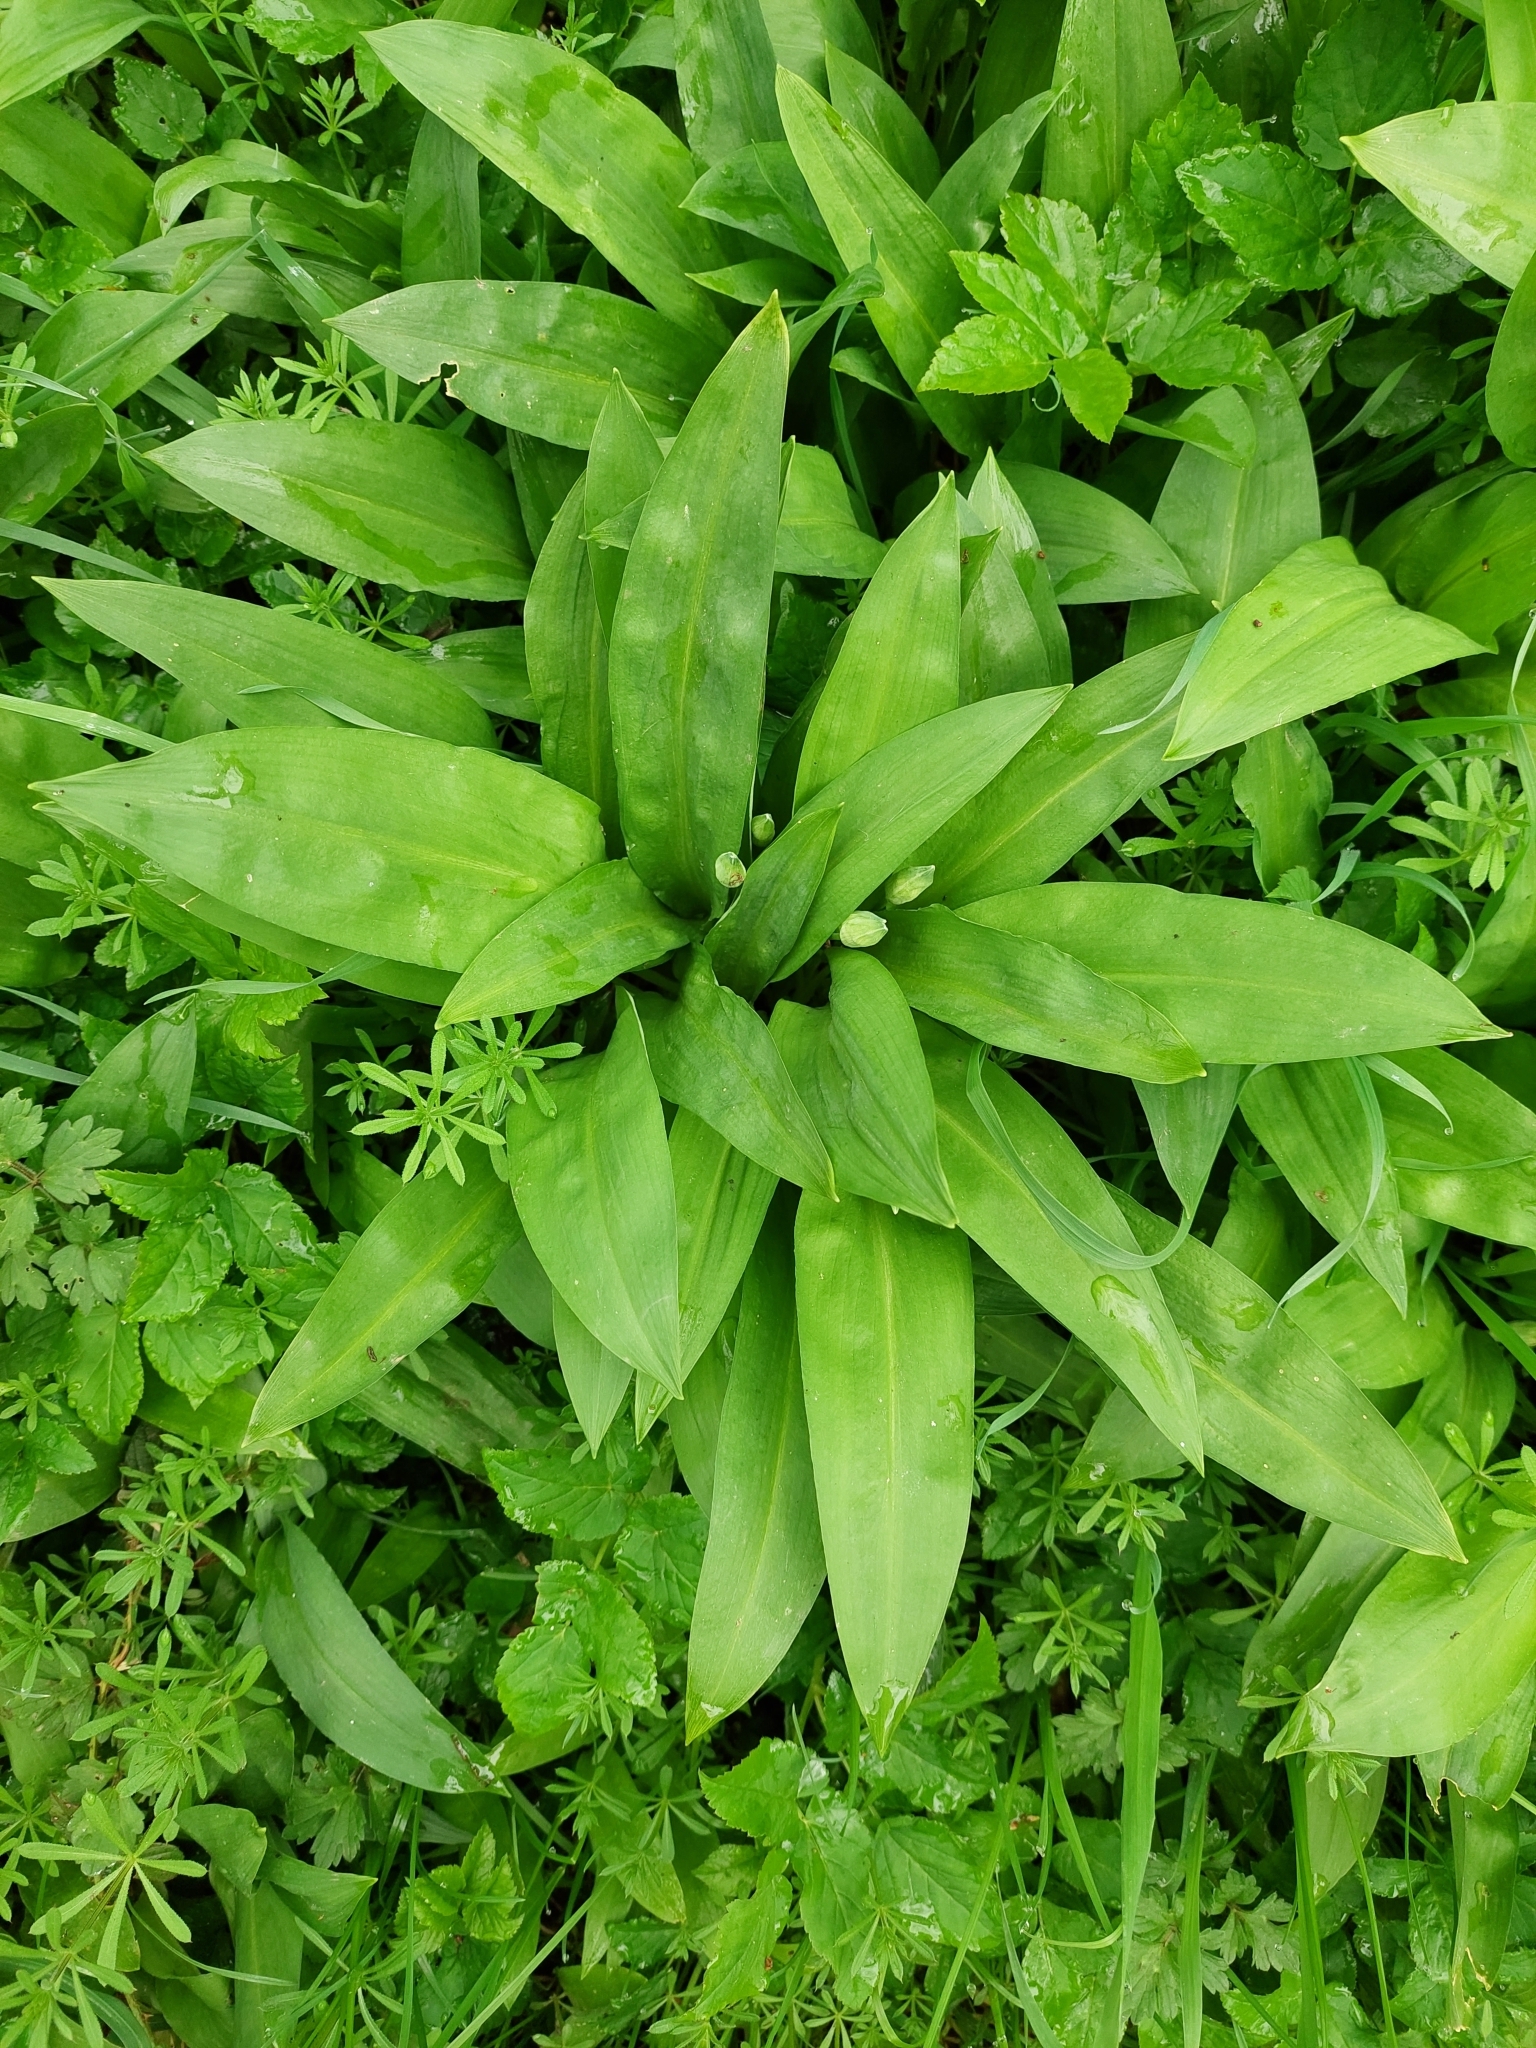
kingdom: Plantae
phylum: Tracheophyta
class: Liliopsida
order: Asparagales
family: Amaryllidaceae
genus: Allium
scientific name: Allium ursinum
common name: Ramsons
